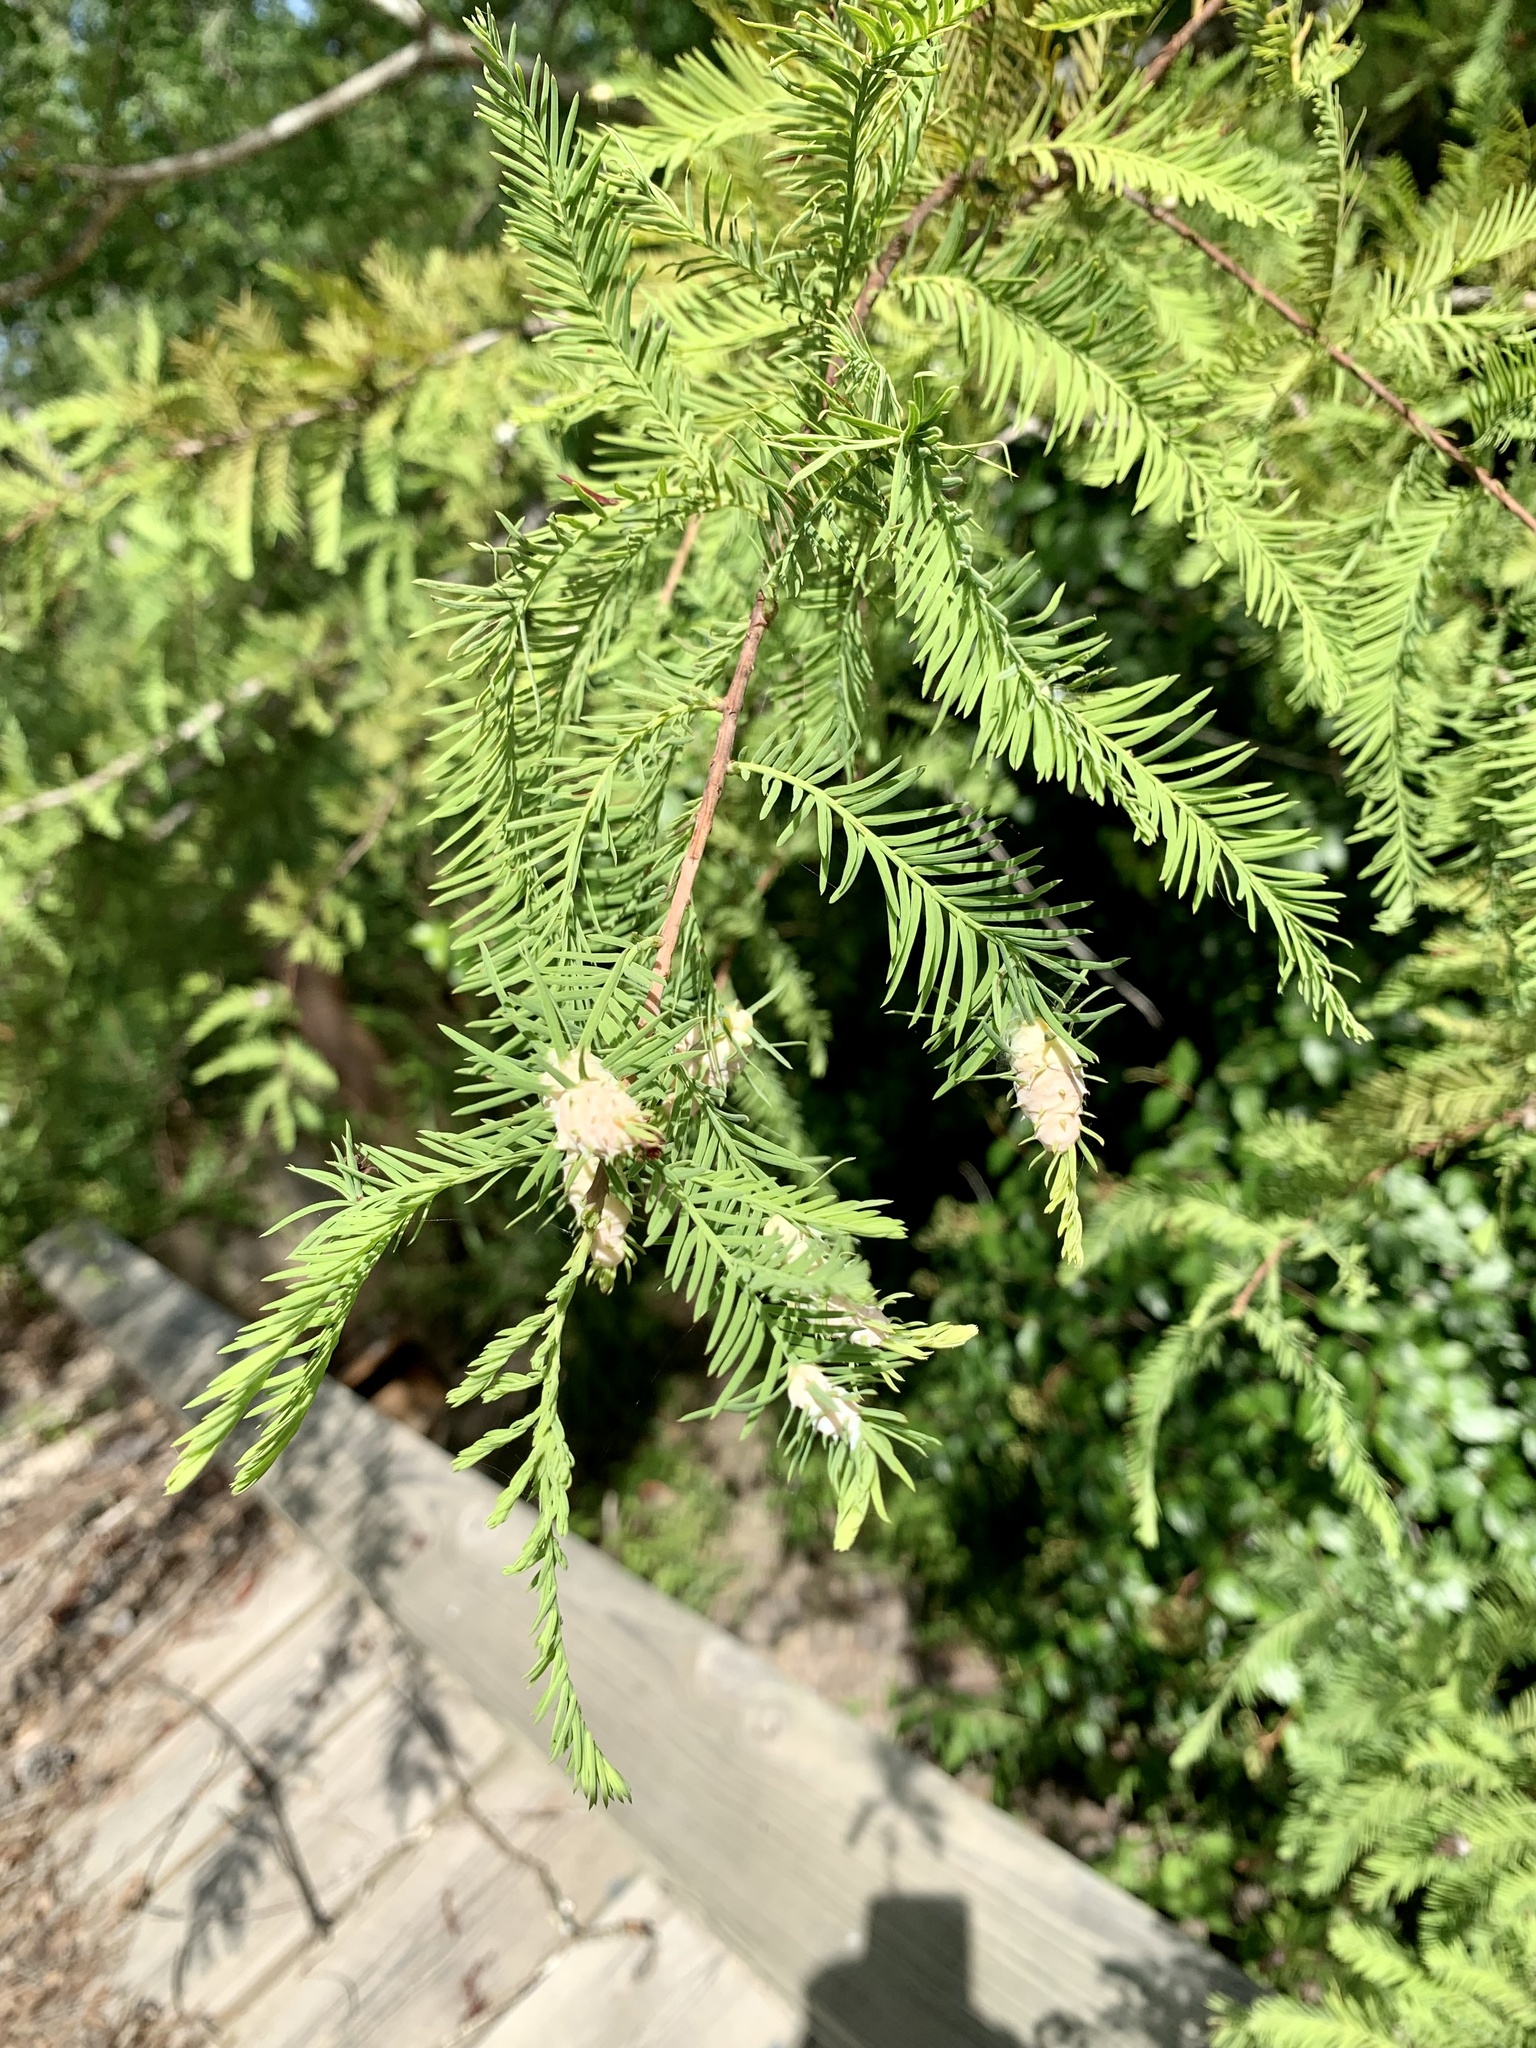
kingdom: Animalia
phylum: Arthropoda
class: Insecta
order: Diptera
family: Cecidomyiidae
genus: Taxodiomyia
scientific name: Taxodiomyia cupressiananassa
